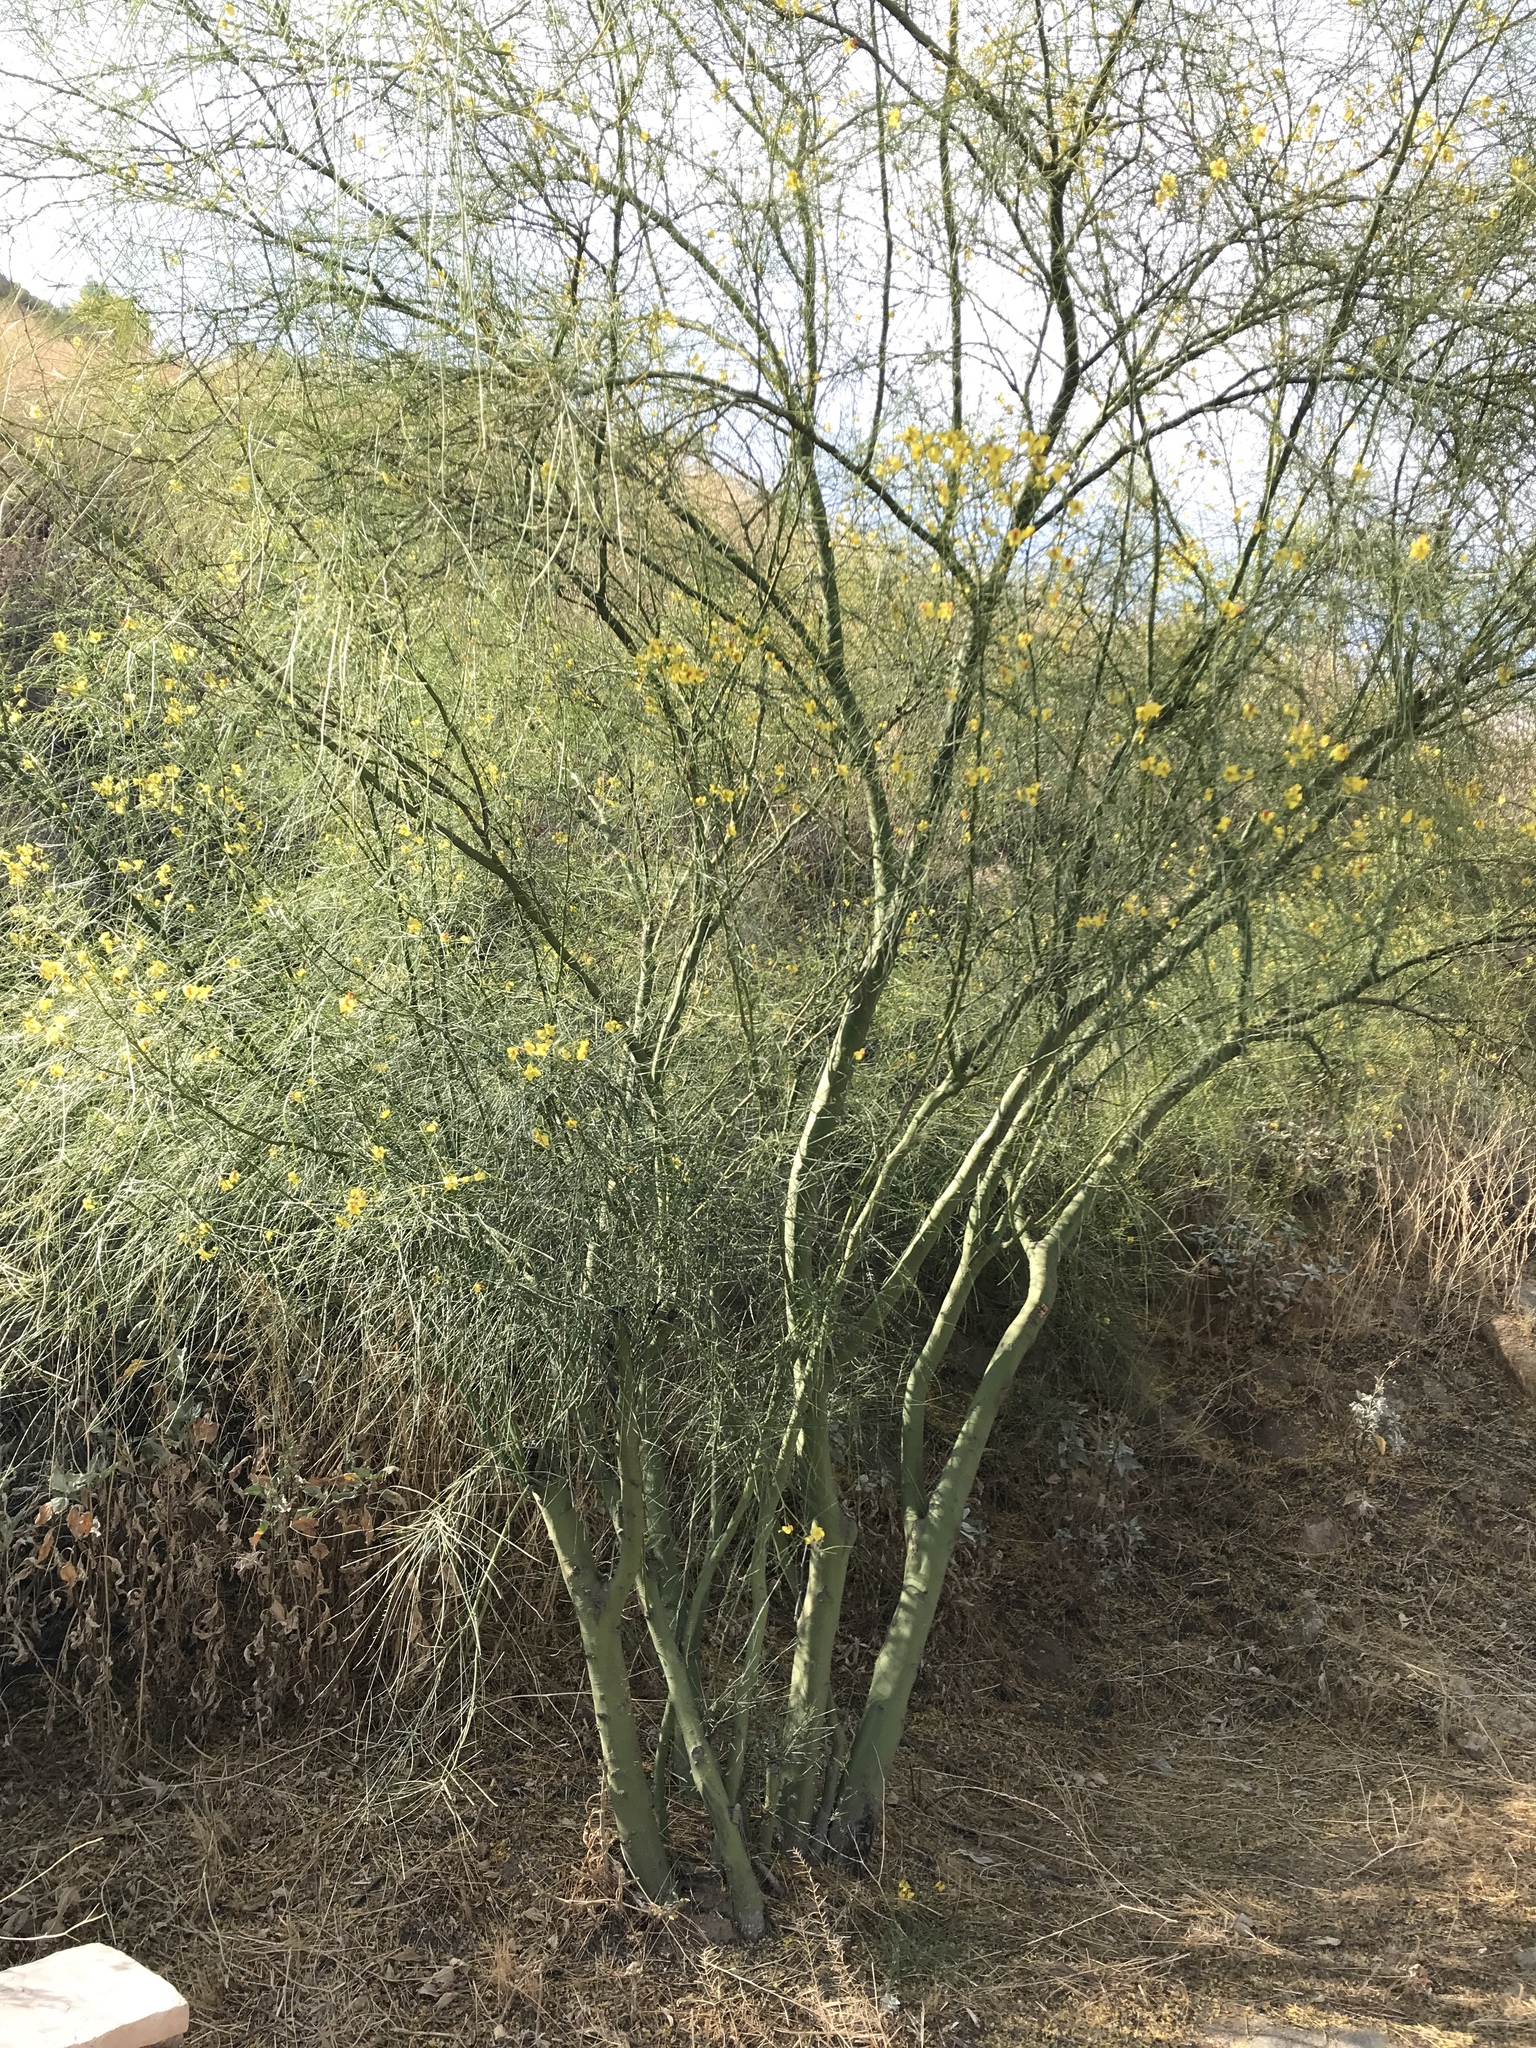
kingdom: Plantae
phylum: Tracheophyta
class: Magnoliopsida
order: Fabales
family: Fabaceae
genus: Parkinsonia
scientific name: Parkinsonia aculeata
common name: Jerusalem thorn
